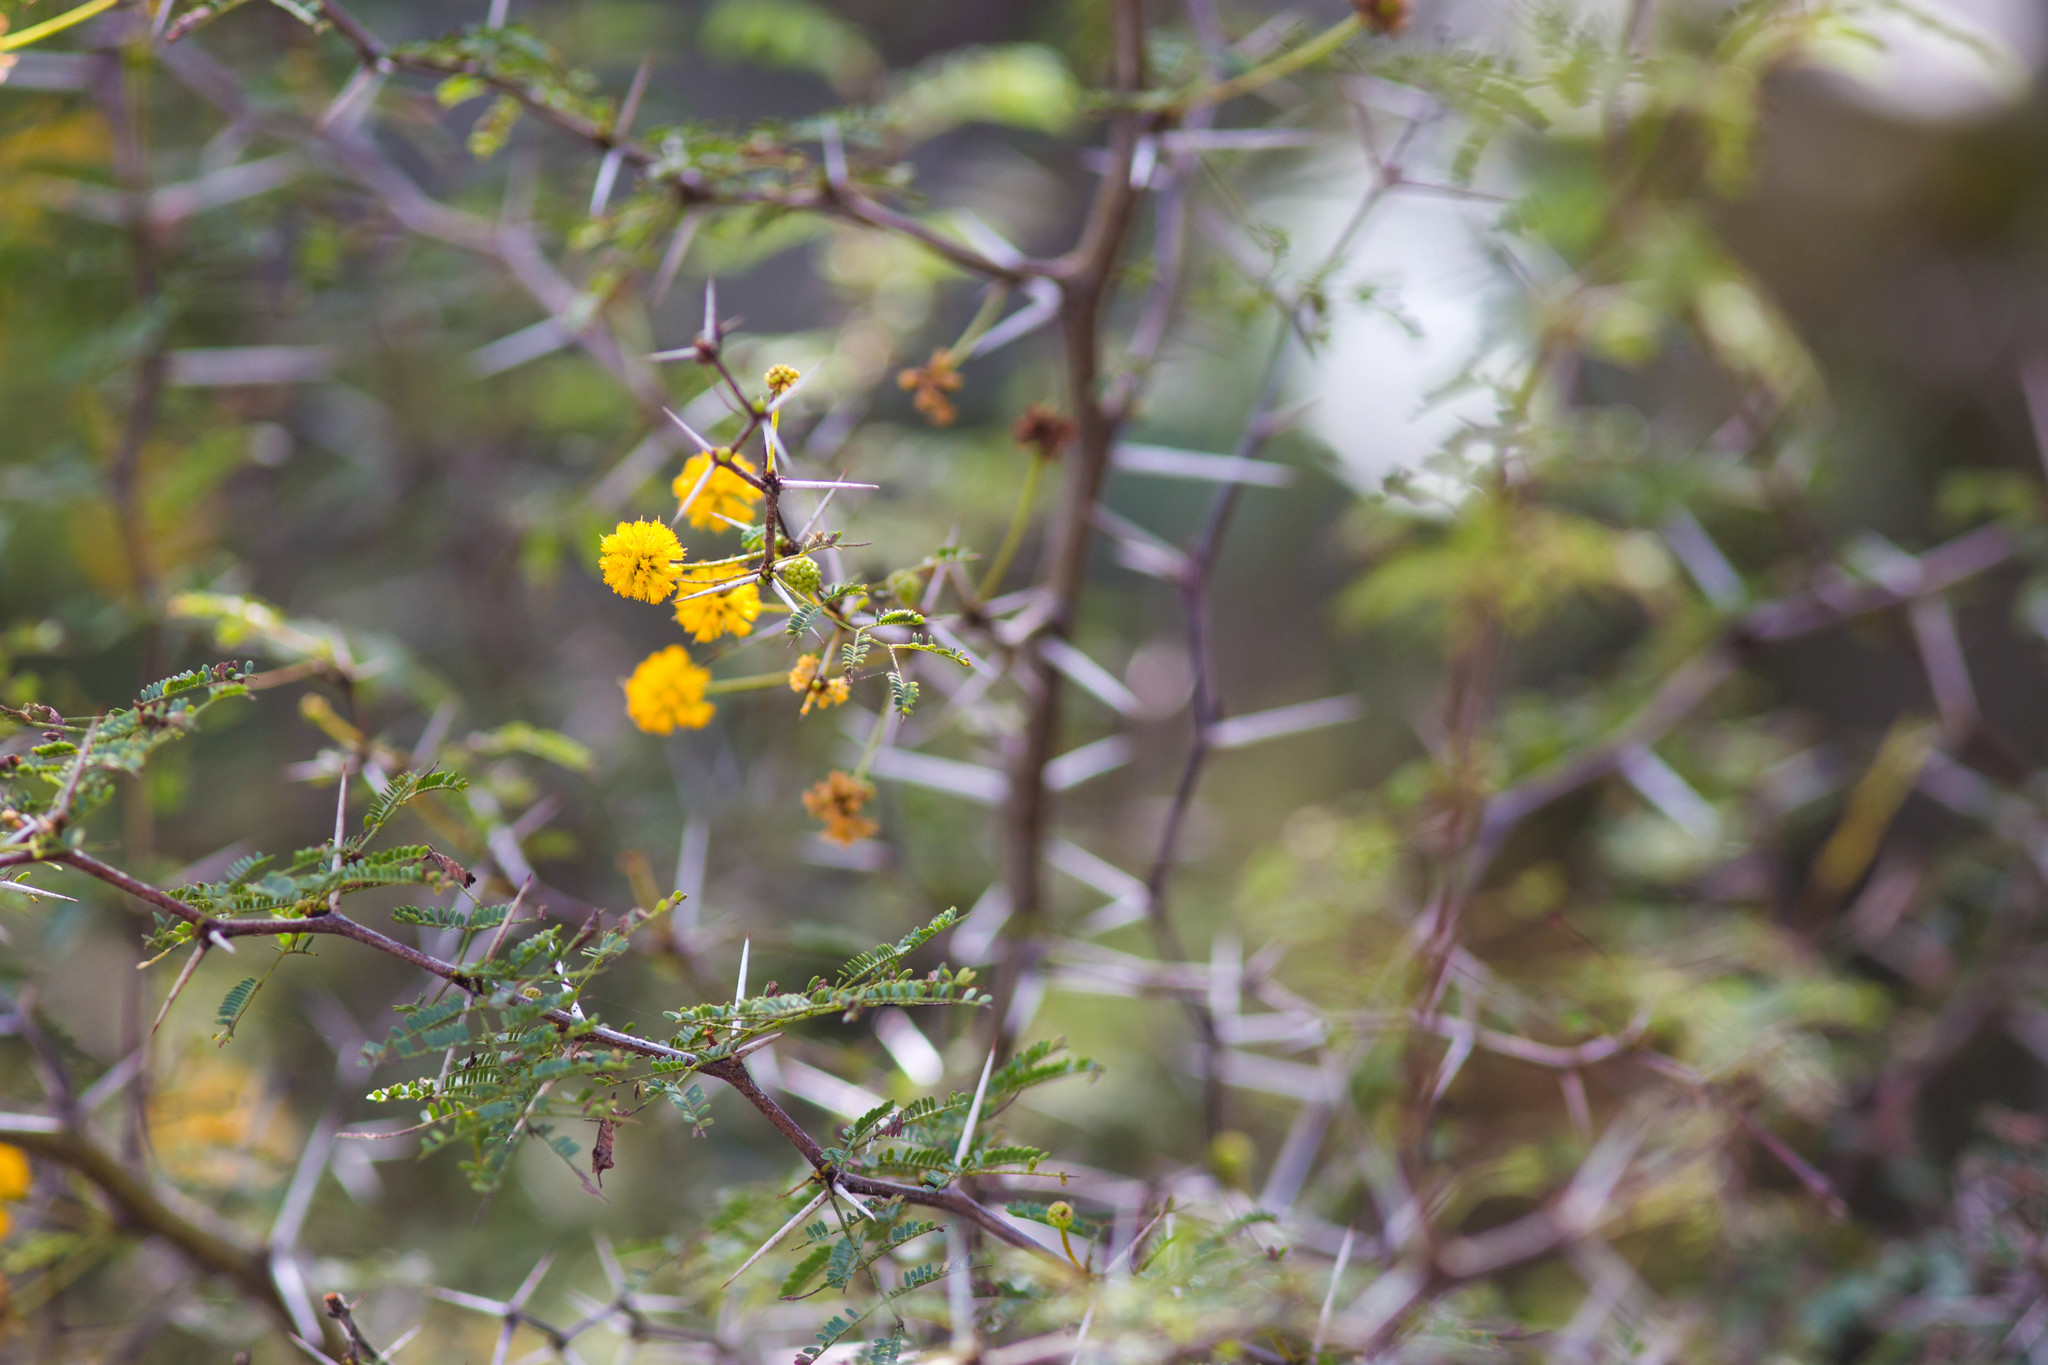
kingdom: Plantae
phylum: Tracheophyta
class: Magnoliopsida
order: Fabales
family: Fabaceae
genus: Vachellia
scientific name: Vachellia farnesiana
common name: Sweet acacia
